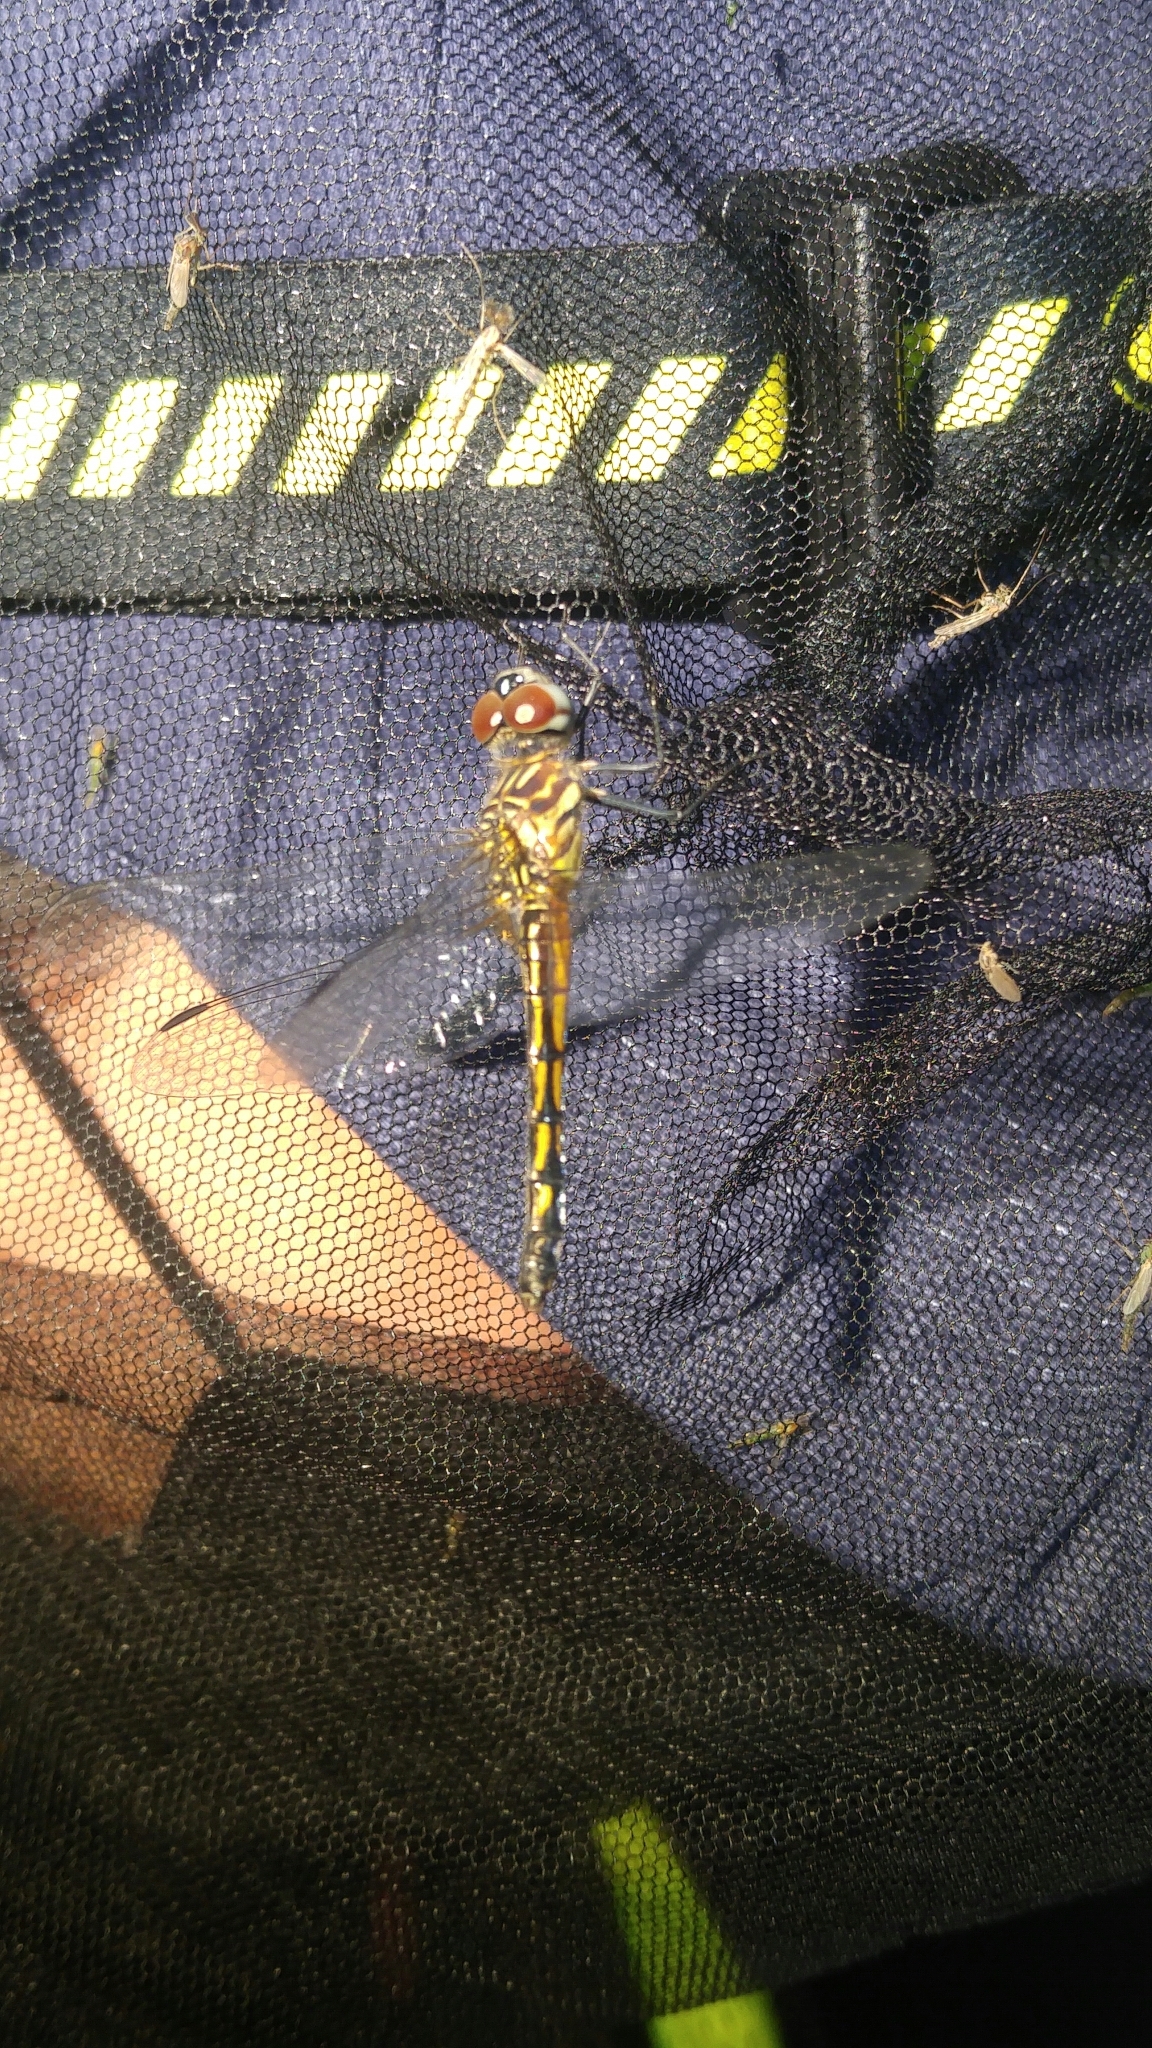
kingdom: Animalia
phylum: Arthropoda
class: Insecta
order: Odonata
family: Libellulidae
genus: Pachydiplax
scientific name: Pachydiplax longipennis
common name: Blue dasher
